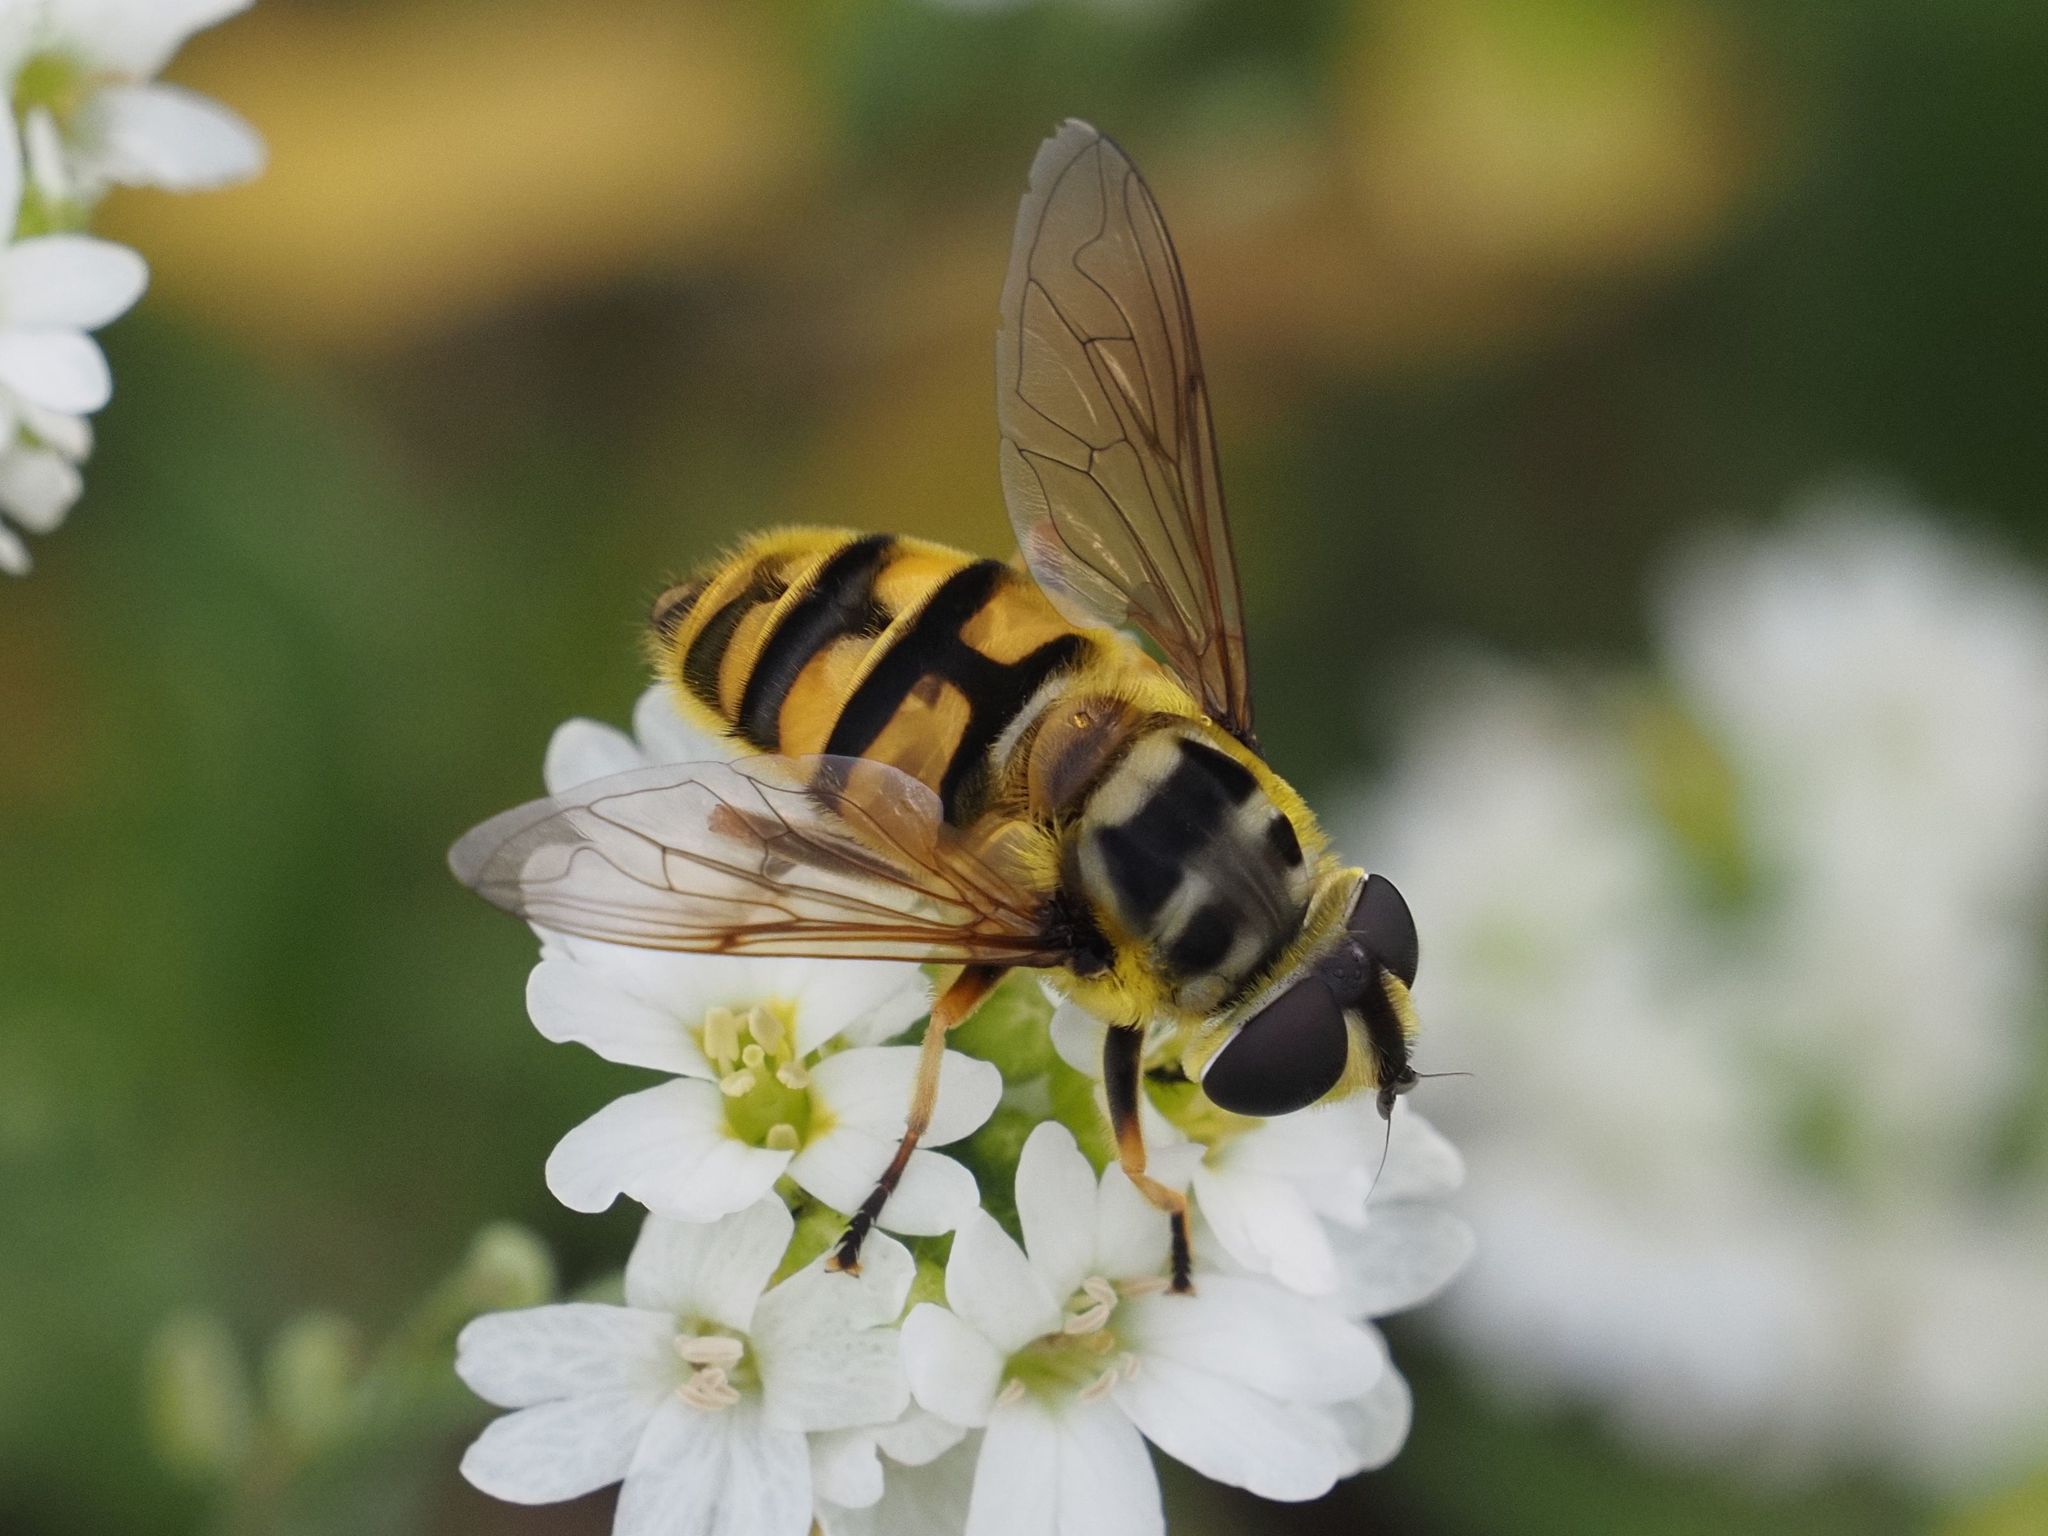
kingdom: Animalia
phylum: Arthropoda
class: Insecta
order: Diptera
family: Syrphidae
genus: Myathropa
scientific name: Myathropa florea
